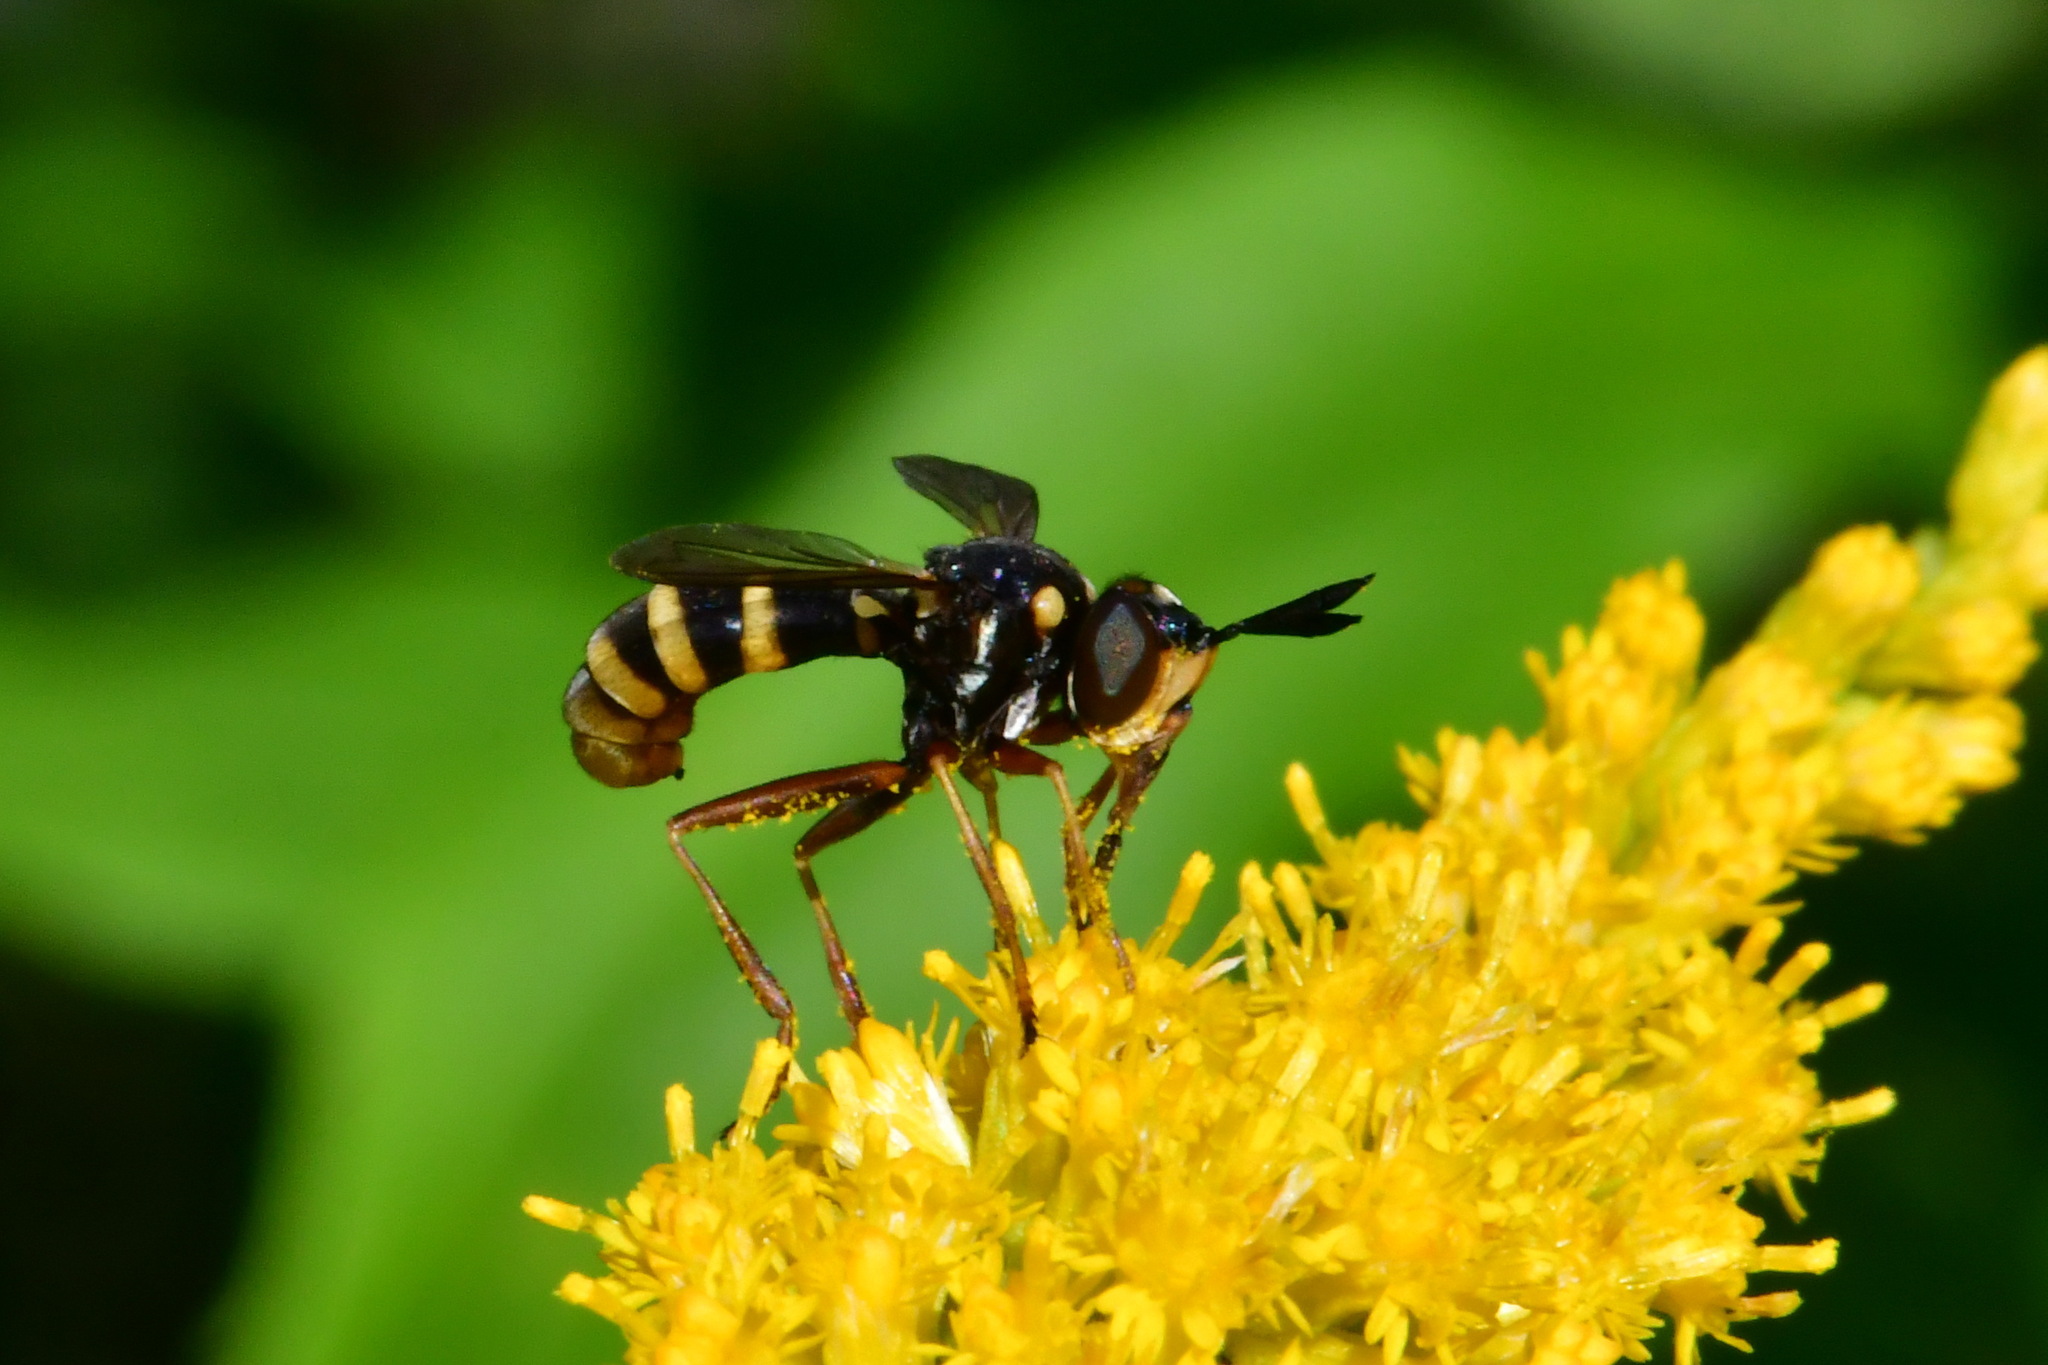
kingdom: Animalia
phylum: Arthropoda
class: Insecta
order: Diptera
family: Conopidae
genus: Conops
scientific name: Conops quadrifasciatus
